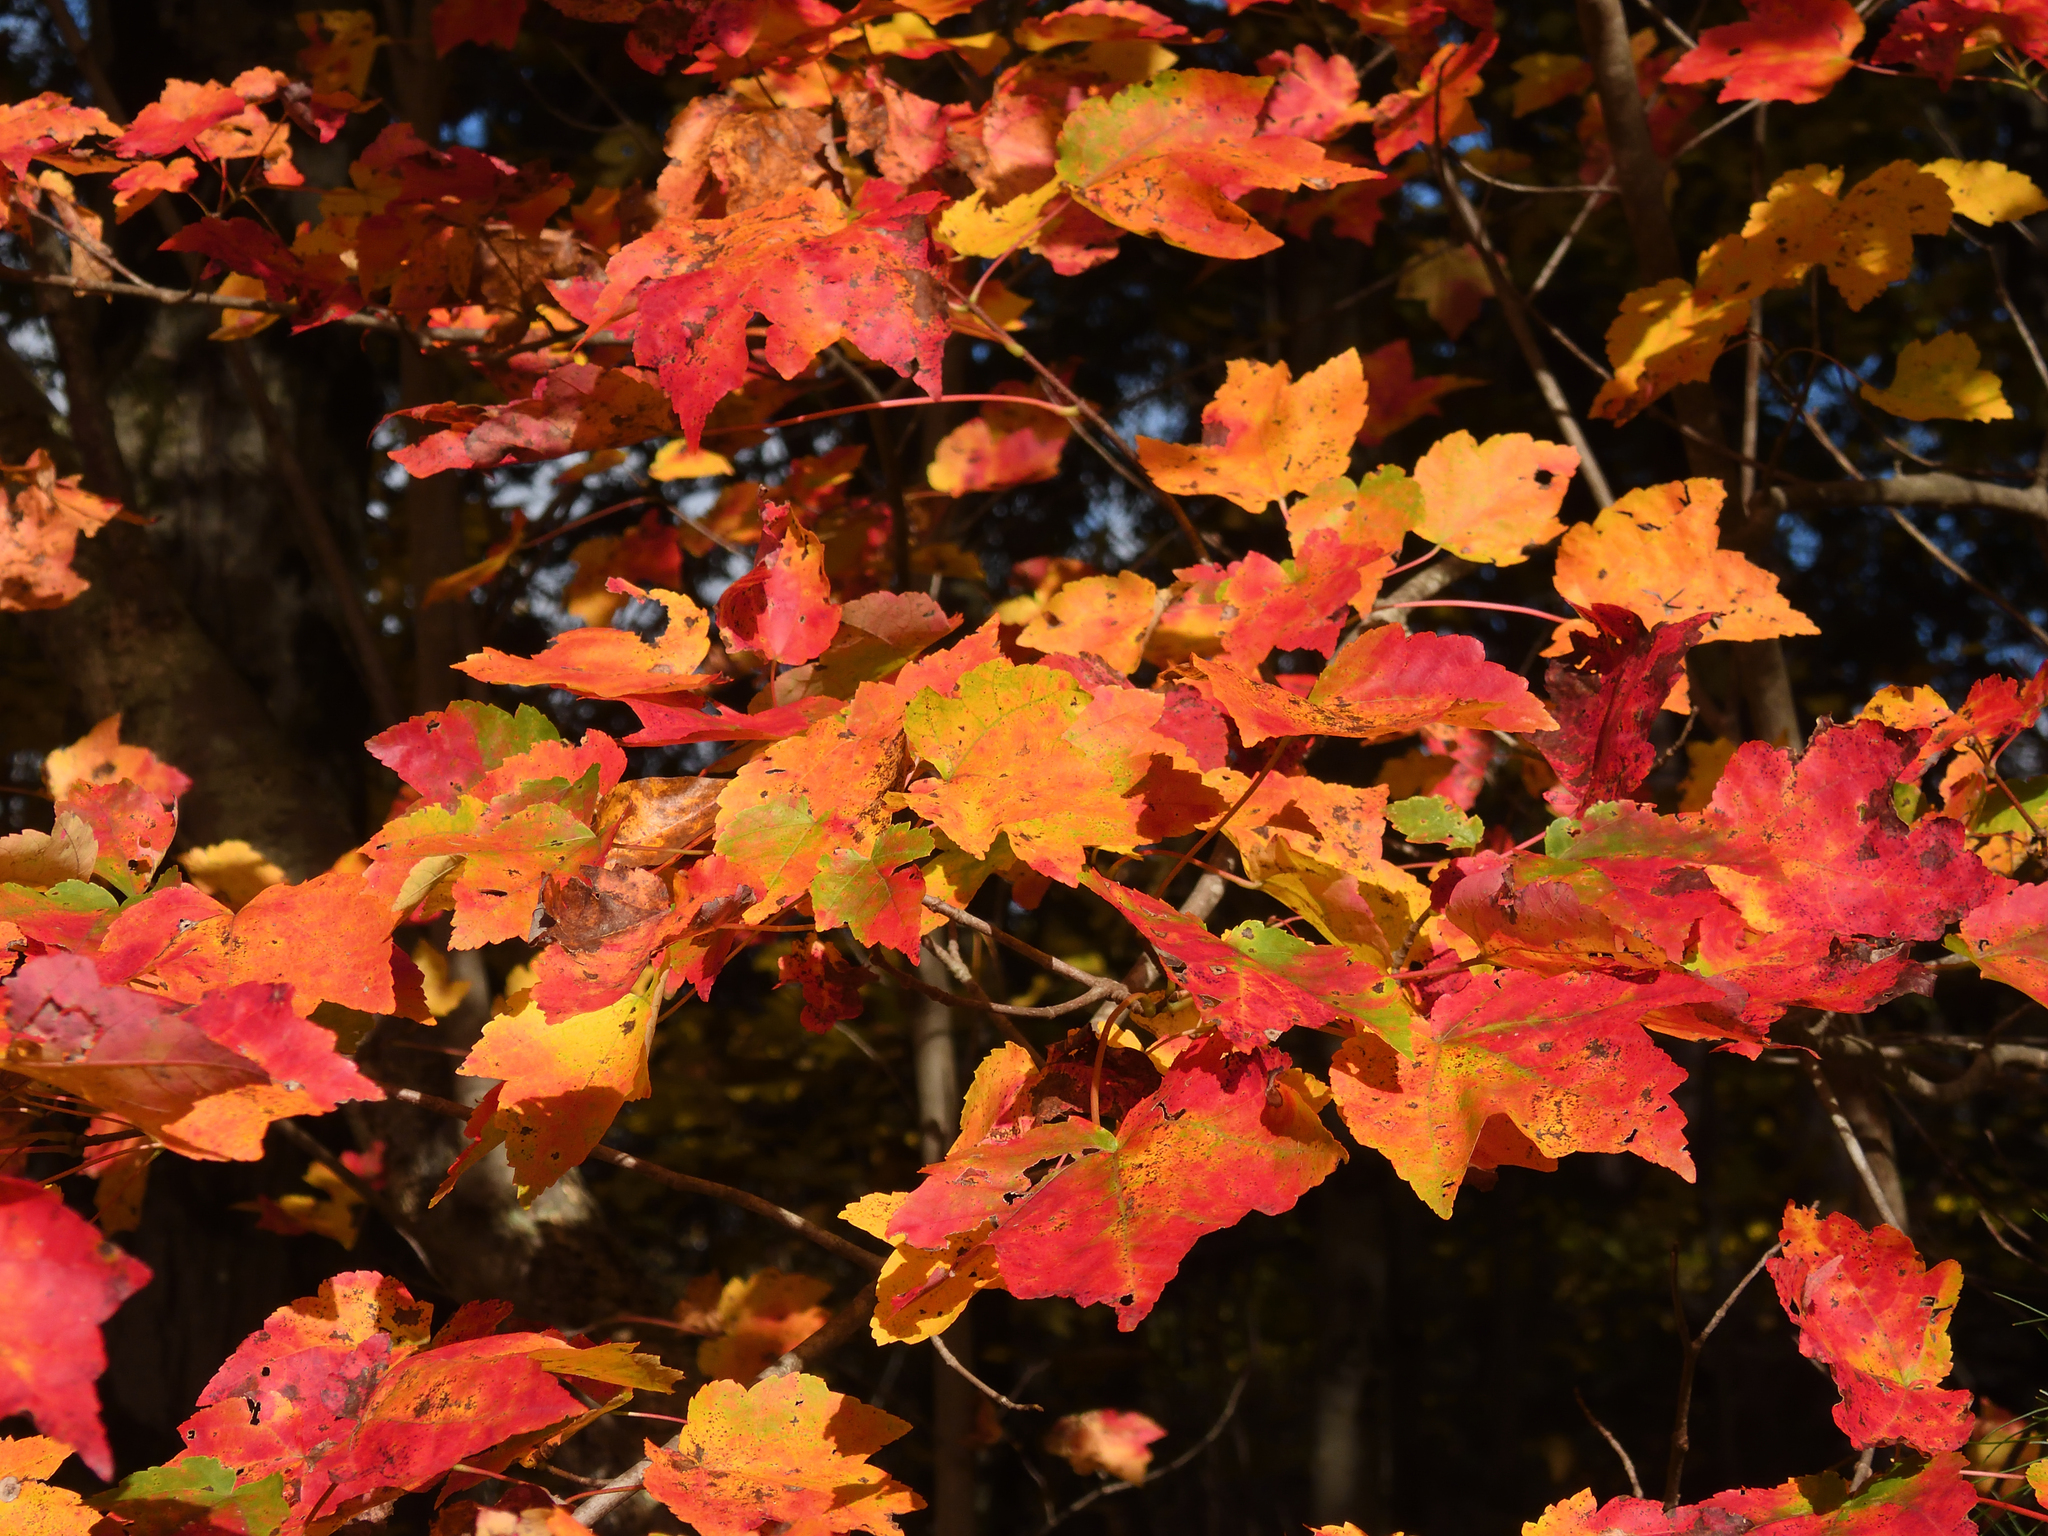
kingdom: Plantae
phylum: Tracheophyta
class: Magnoliopsida
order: Sapindales
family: Sapindaceae
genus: Acer
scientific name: Acer rubrum
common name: Red maple
